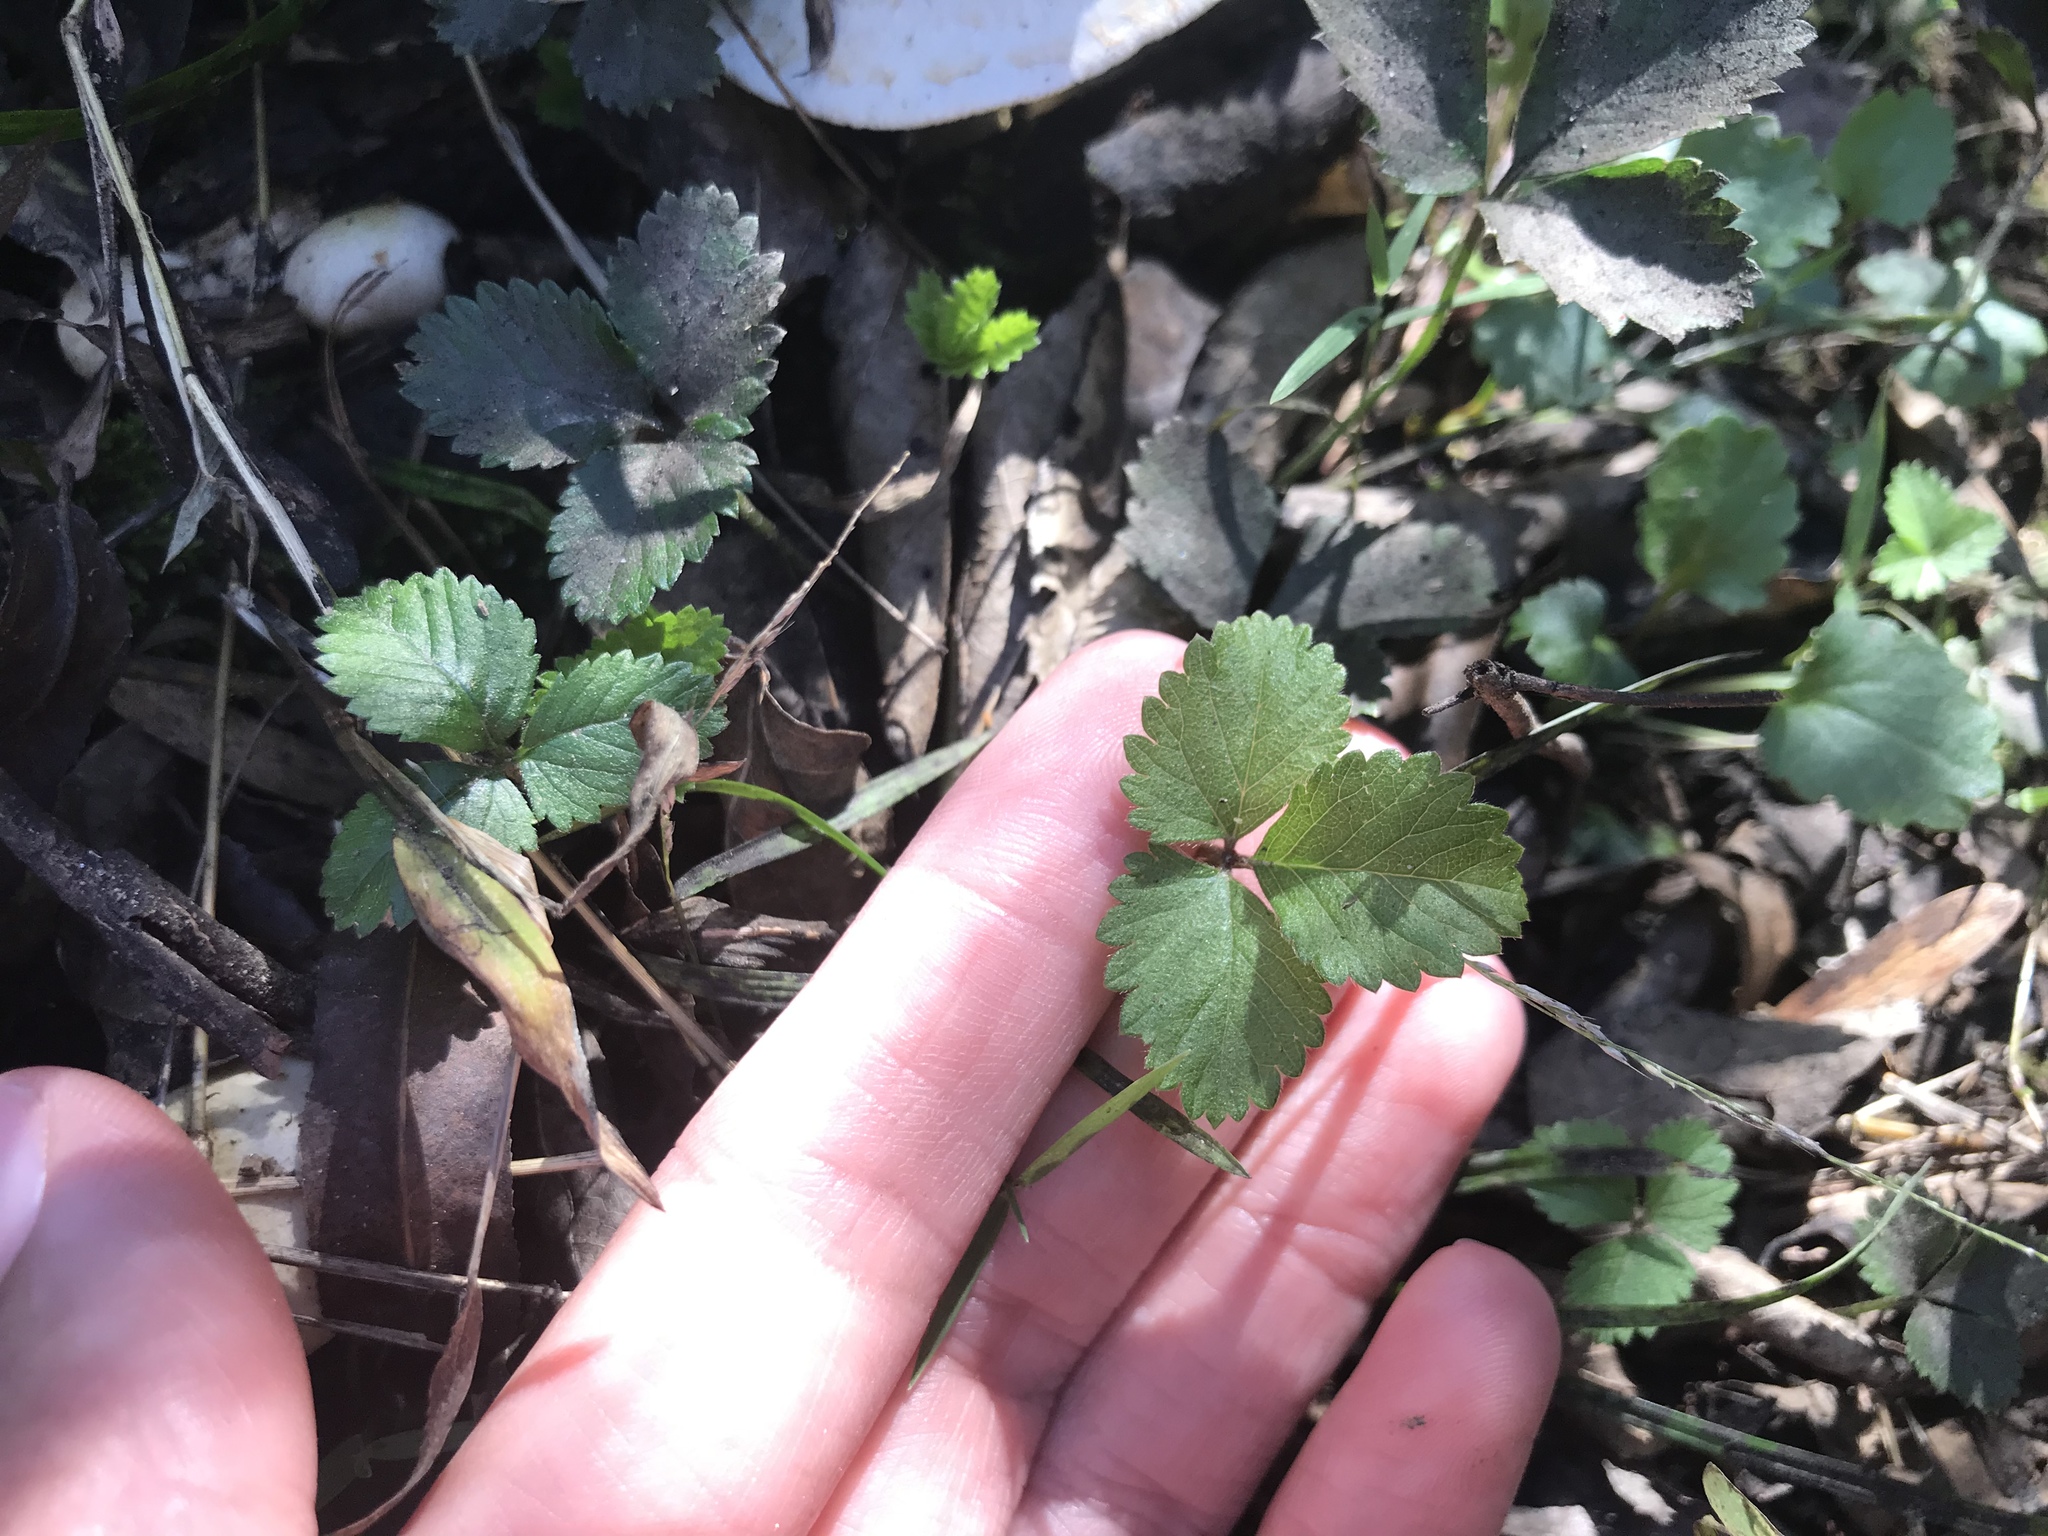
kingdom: Plantae
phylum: Tracheophyta
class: Magnoliopsida
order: Rosales
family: Rosaceae
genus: Potentilla
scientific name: Potentilla indica
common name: Yellow-flowered strawberry
